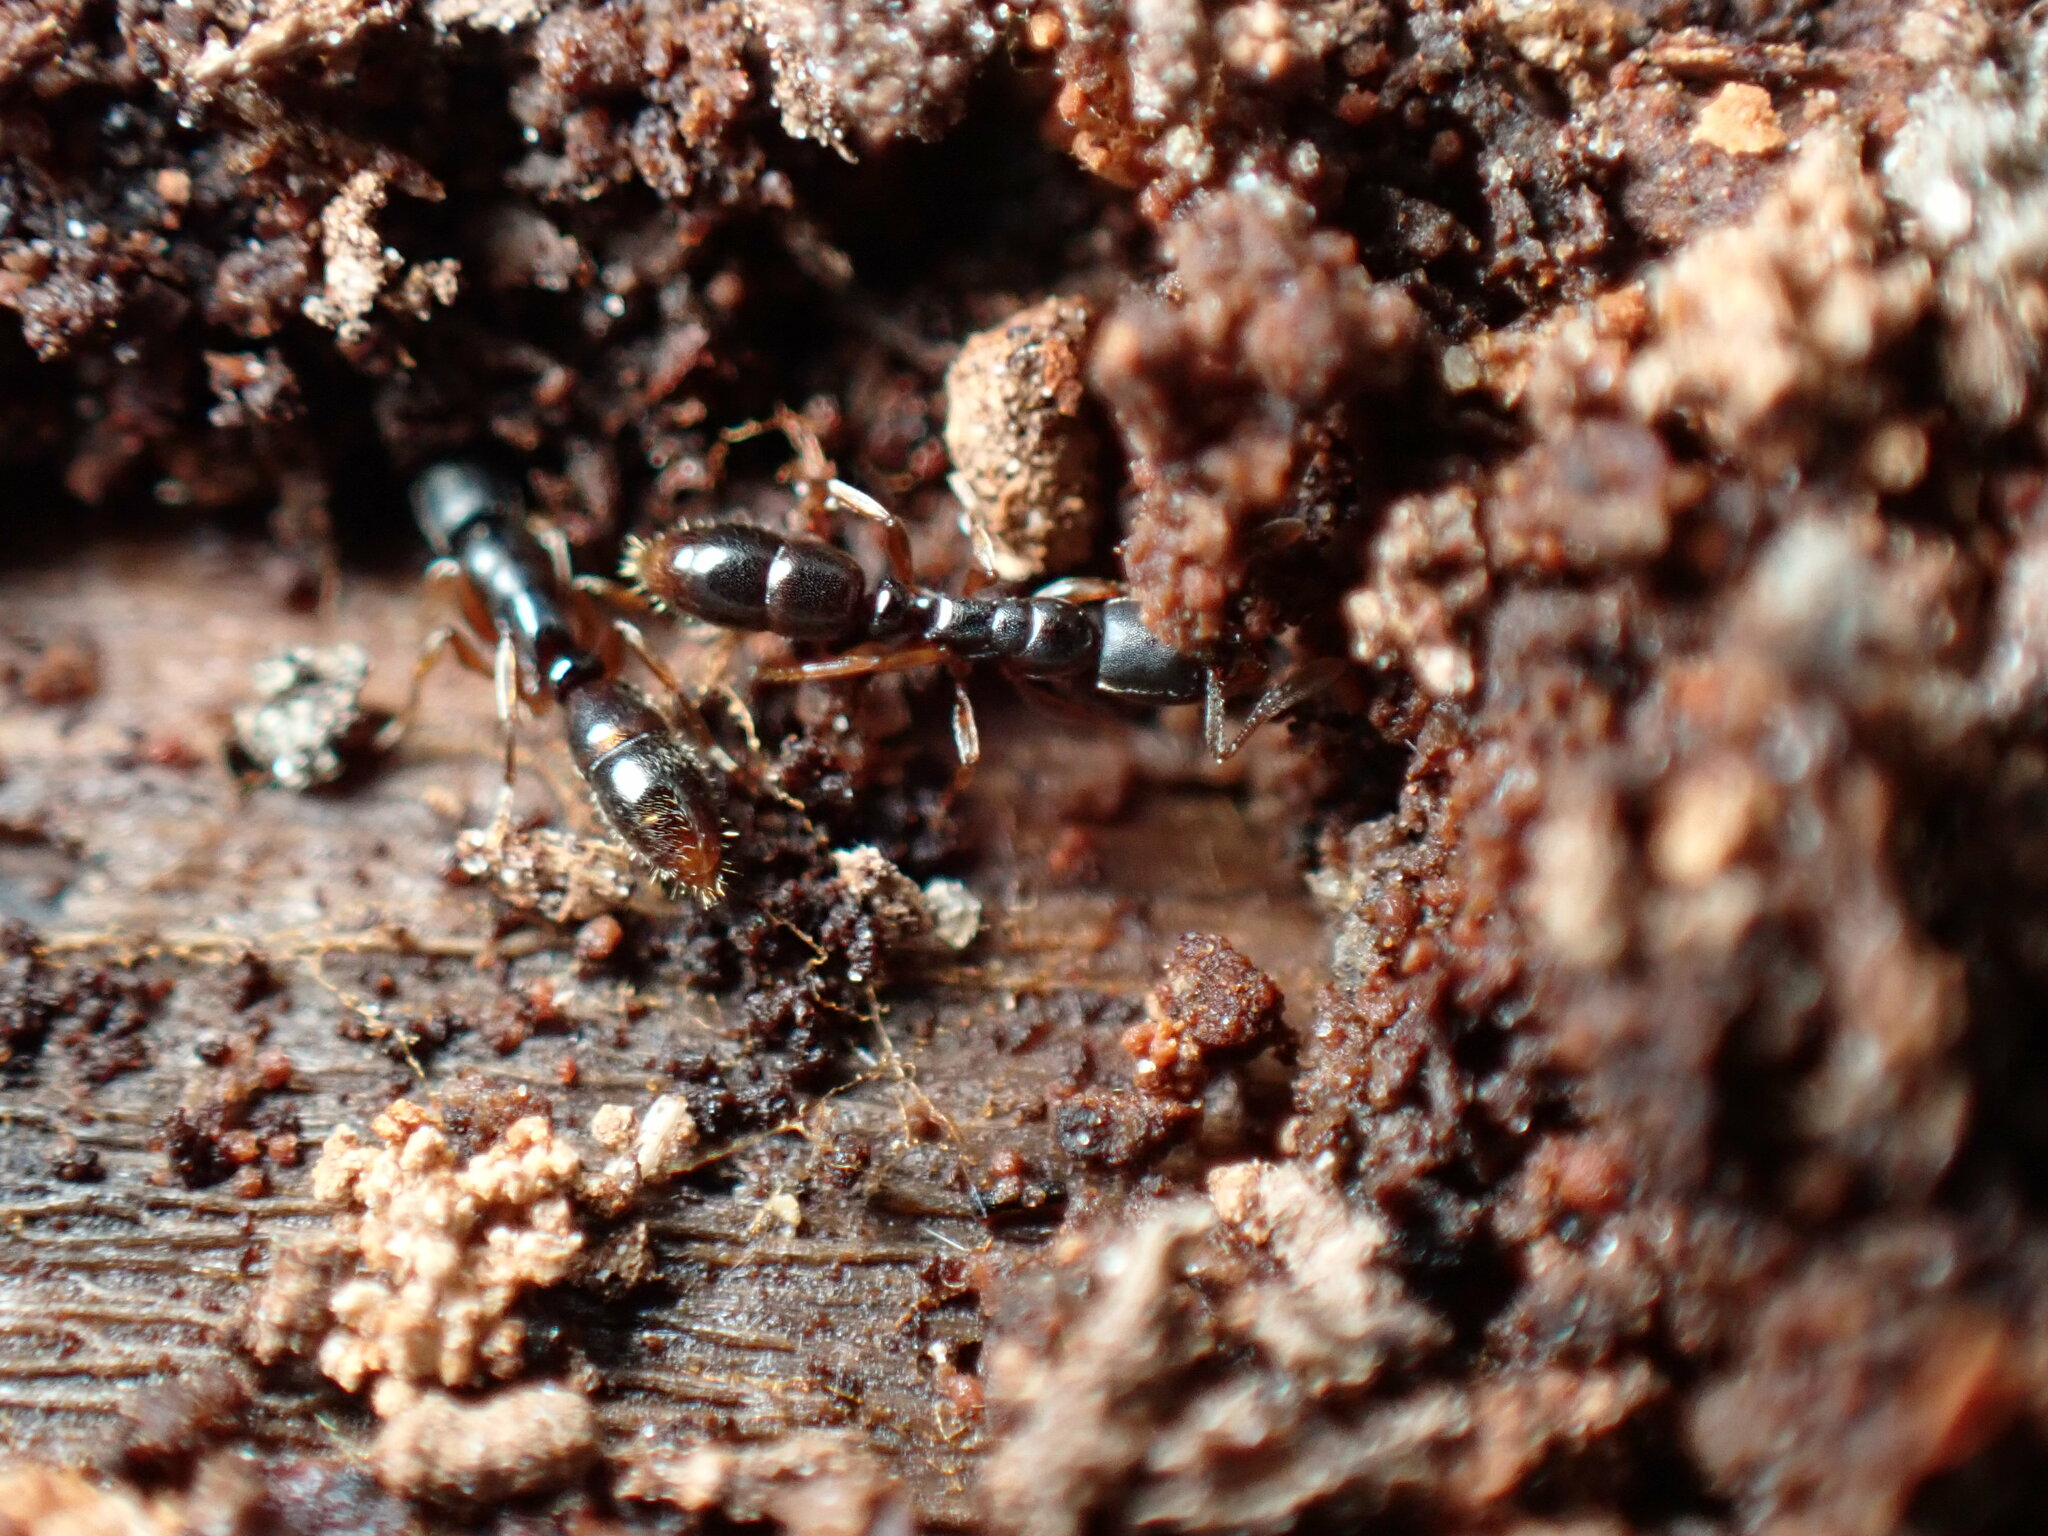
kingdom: Animalia
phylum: Arthropoda
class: Insecta
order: Hymenoptera
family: Formicidae
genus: Ponera
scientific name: Ponera pennsylvanica
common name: Pennsylvania ponera
